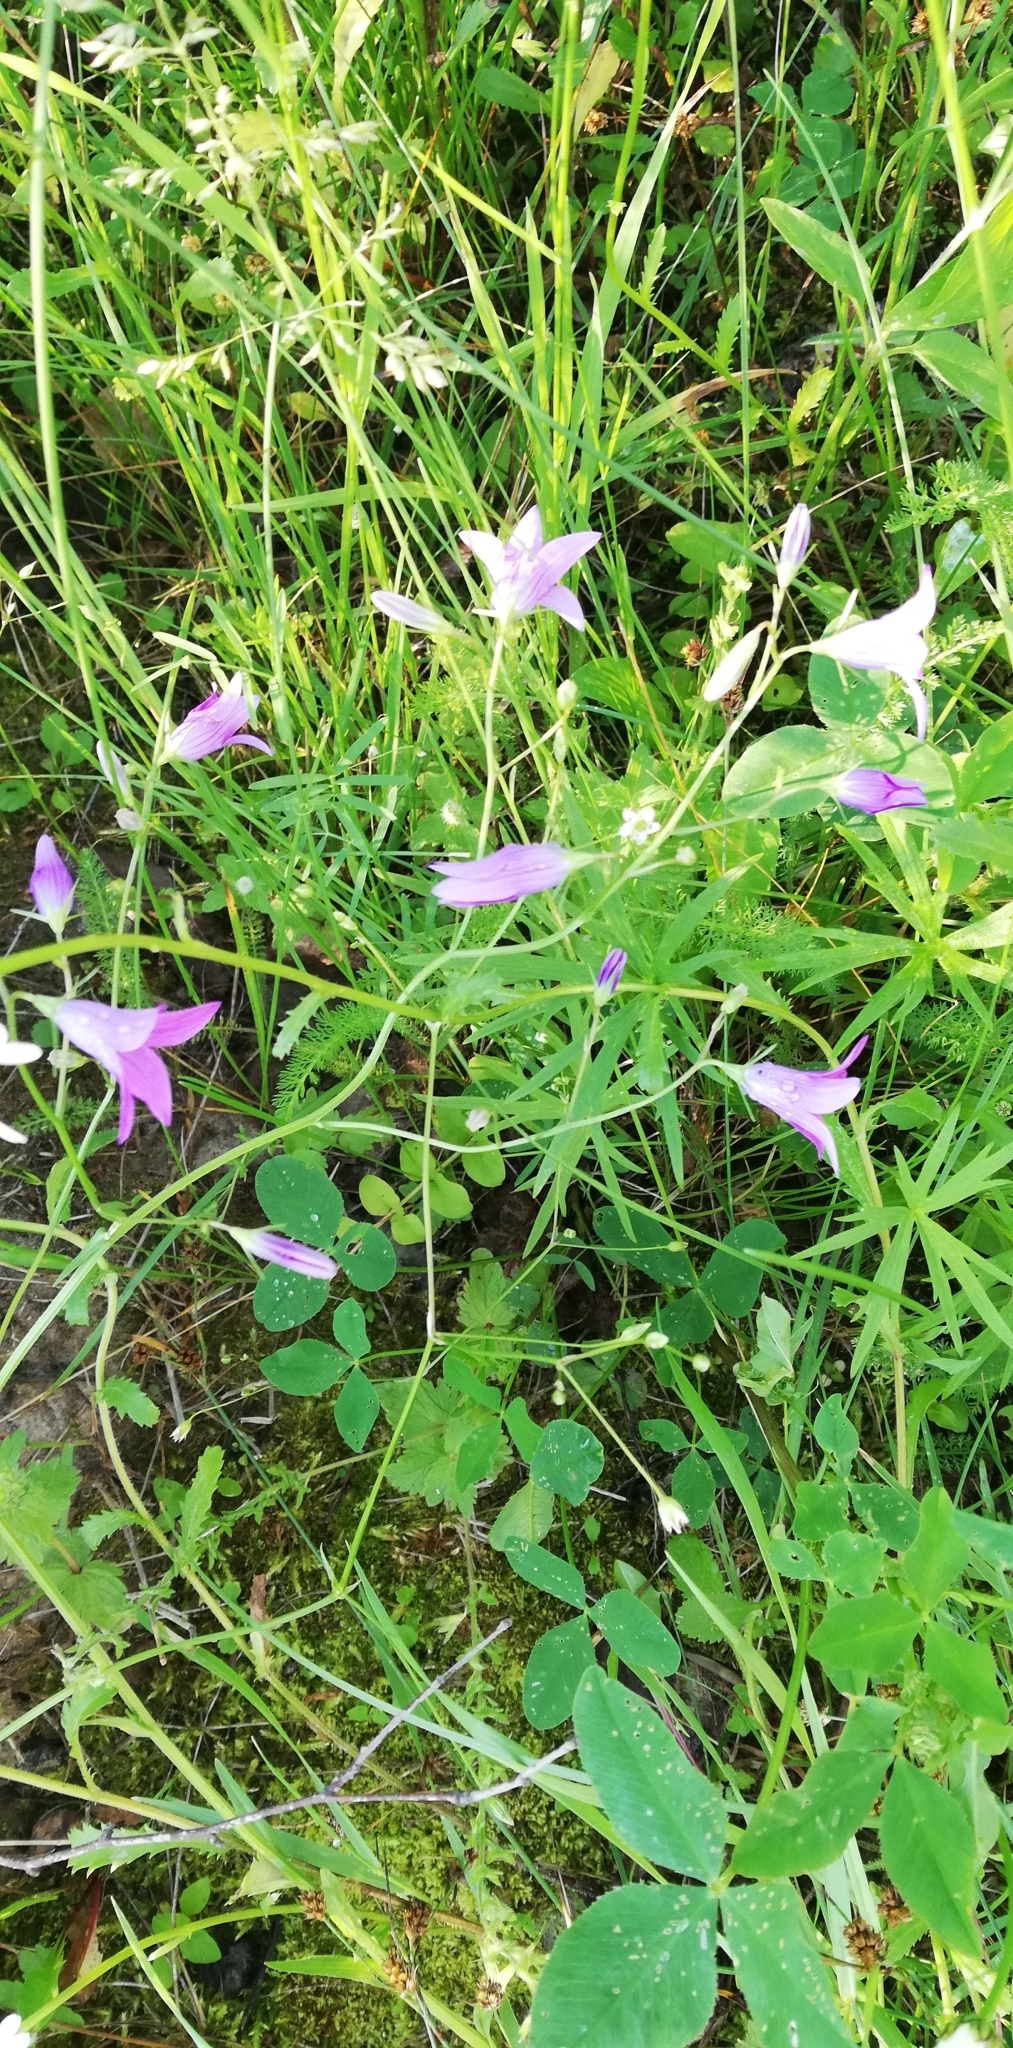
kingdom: Plantae
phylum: Tracheophyta
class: Magnoliopsida
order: Asterales
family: Campanulaceae
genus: Campanula
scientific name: Campanula patula
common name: Spreading bellflower
